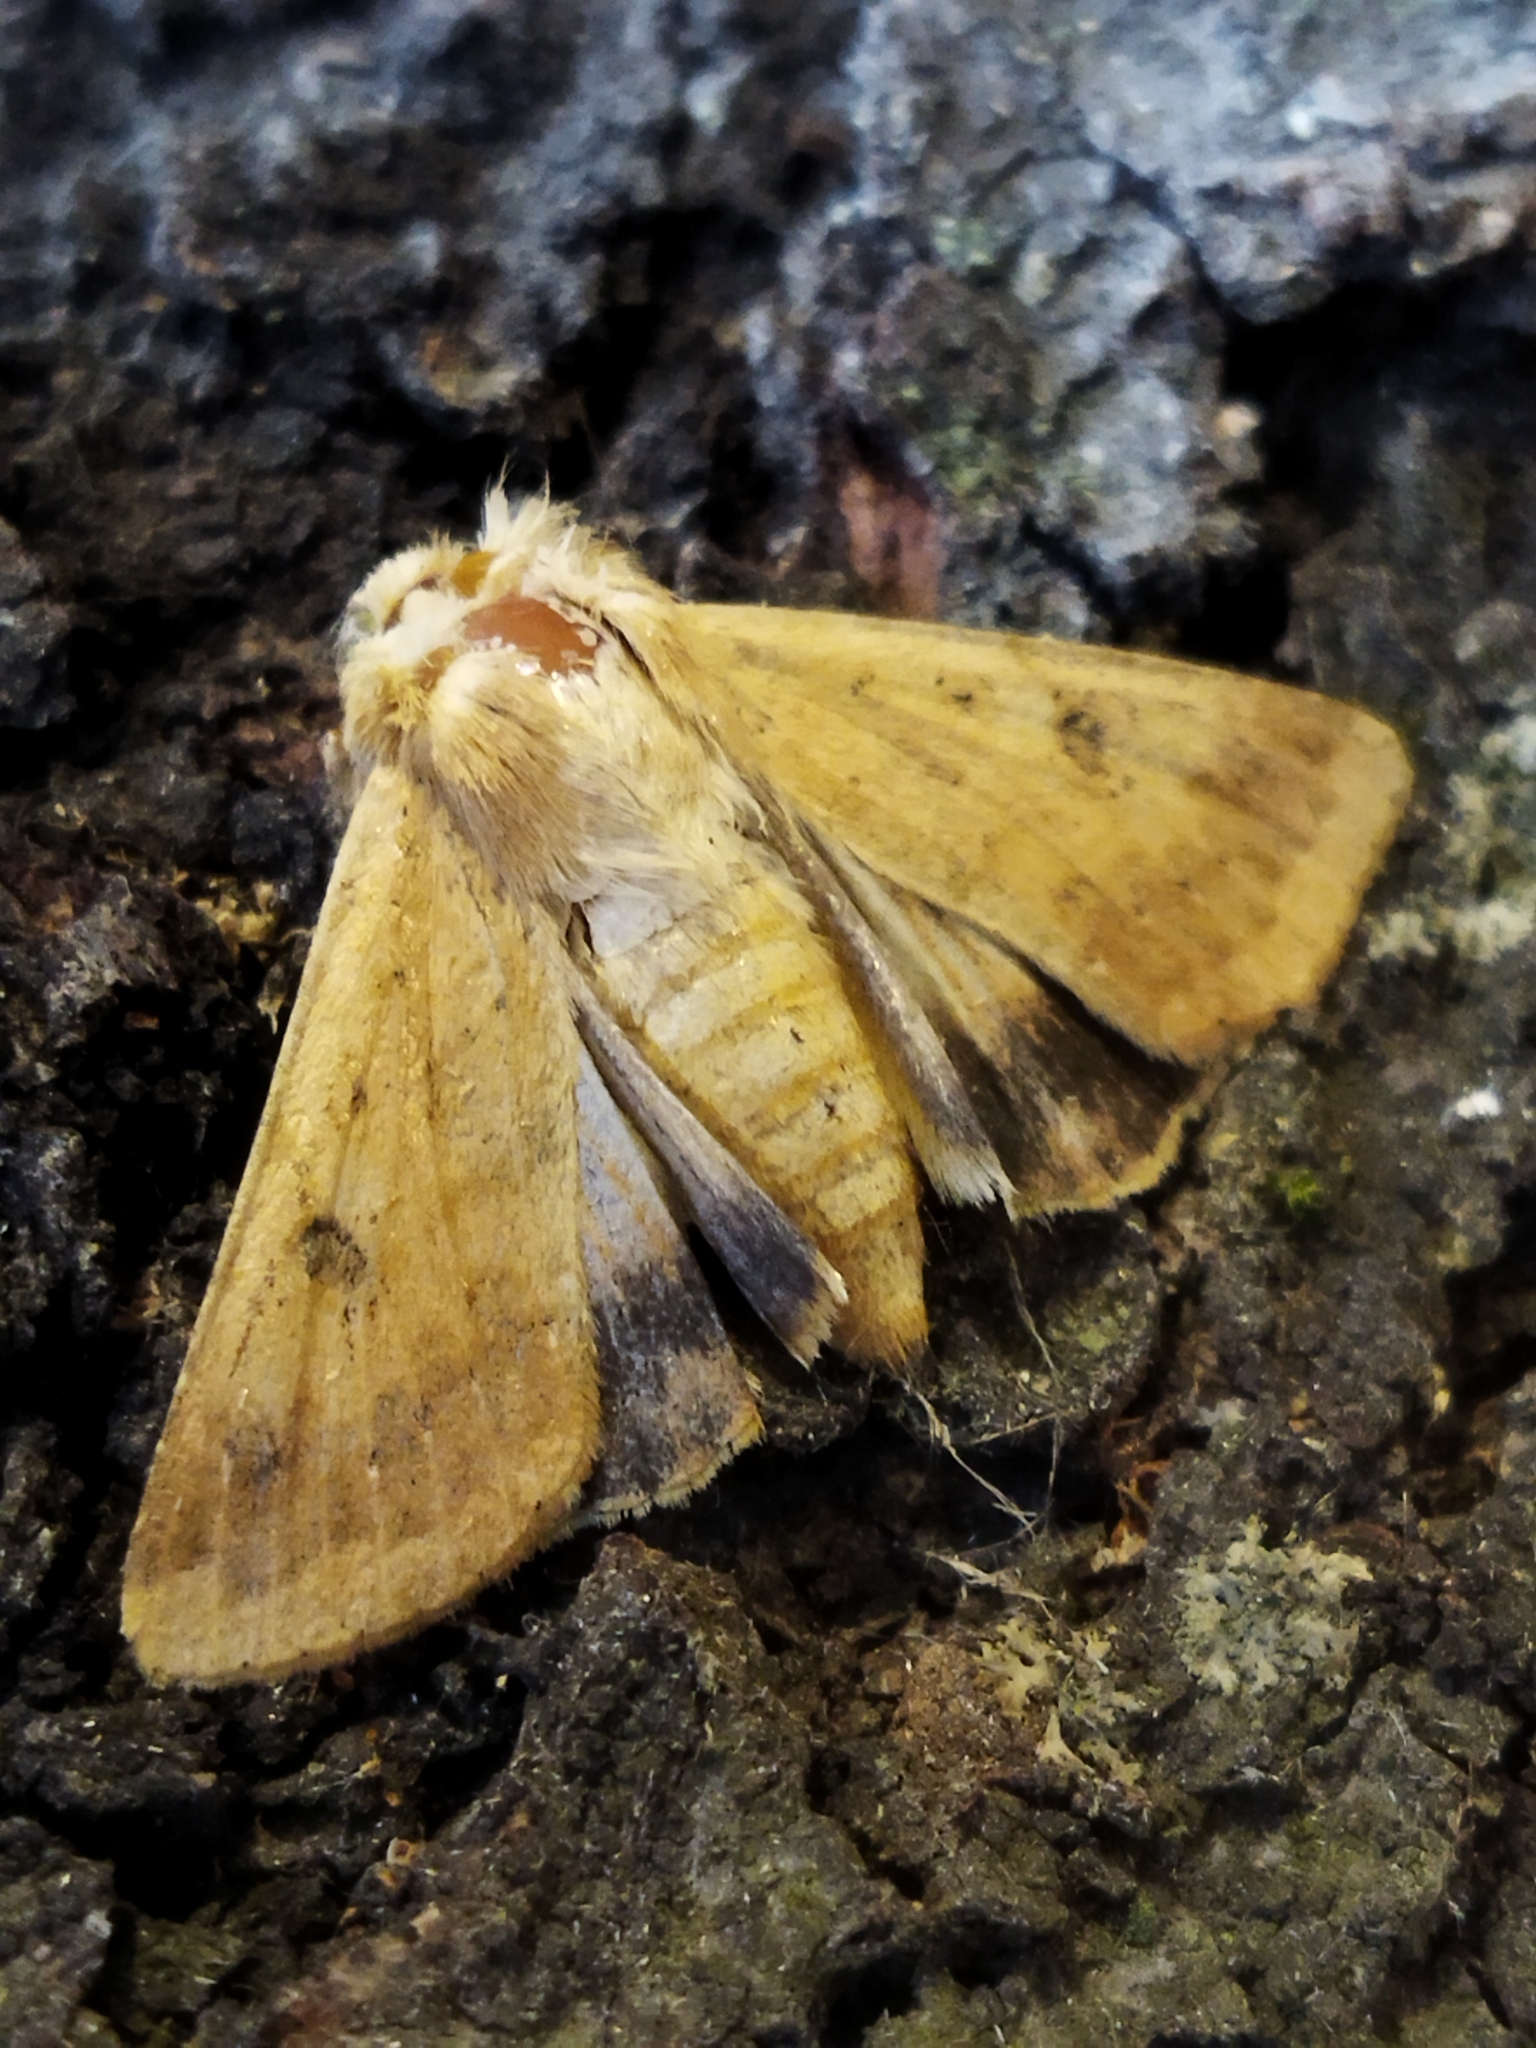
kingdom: Animalia
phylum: Arthropoda
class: Insecta
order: Lepidoptera
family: Noctuidae
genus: Helicoverpa
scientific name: Helicoverpa armigera
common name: Cotton bollworm
